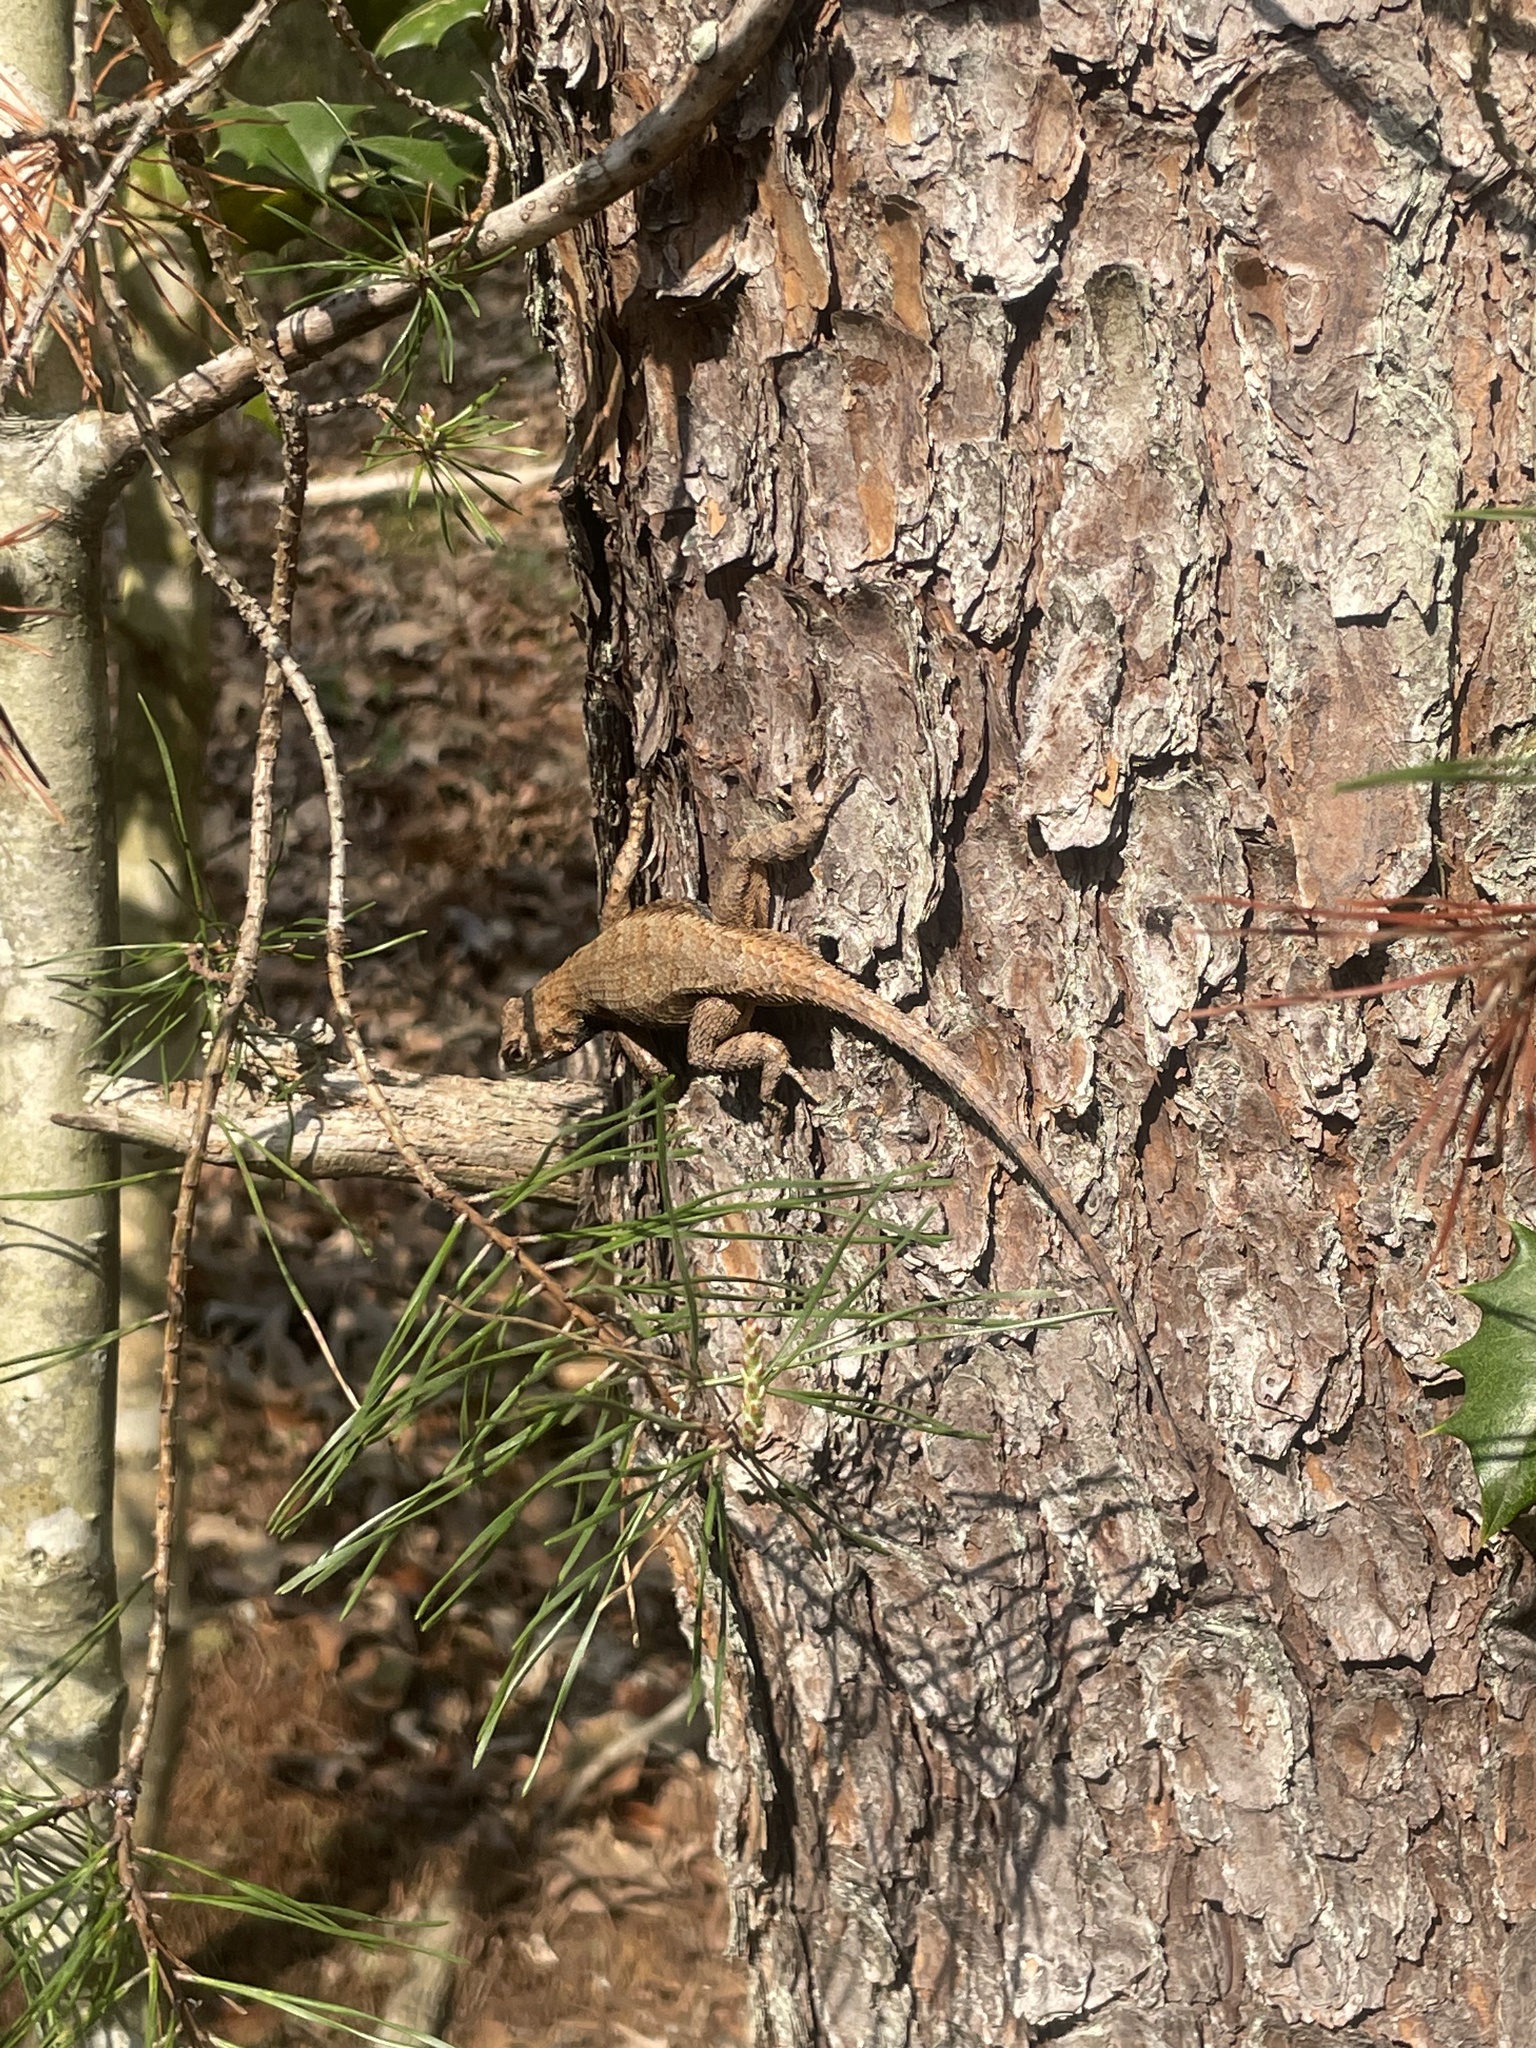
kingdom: Animalia
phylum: Chordata
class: Squamata
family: Phrynosomatidae
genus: Sceloporus
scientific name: Sceloporus undulatus
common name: Eastern fence lizard
